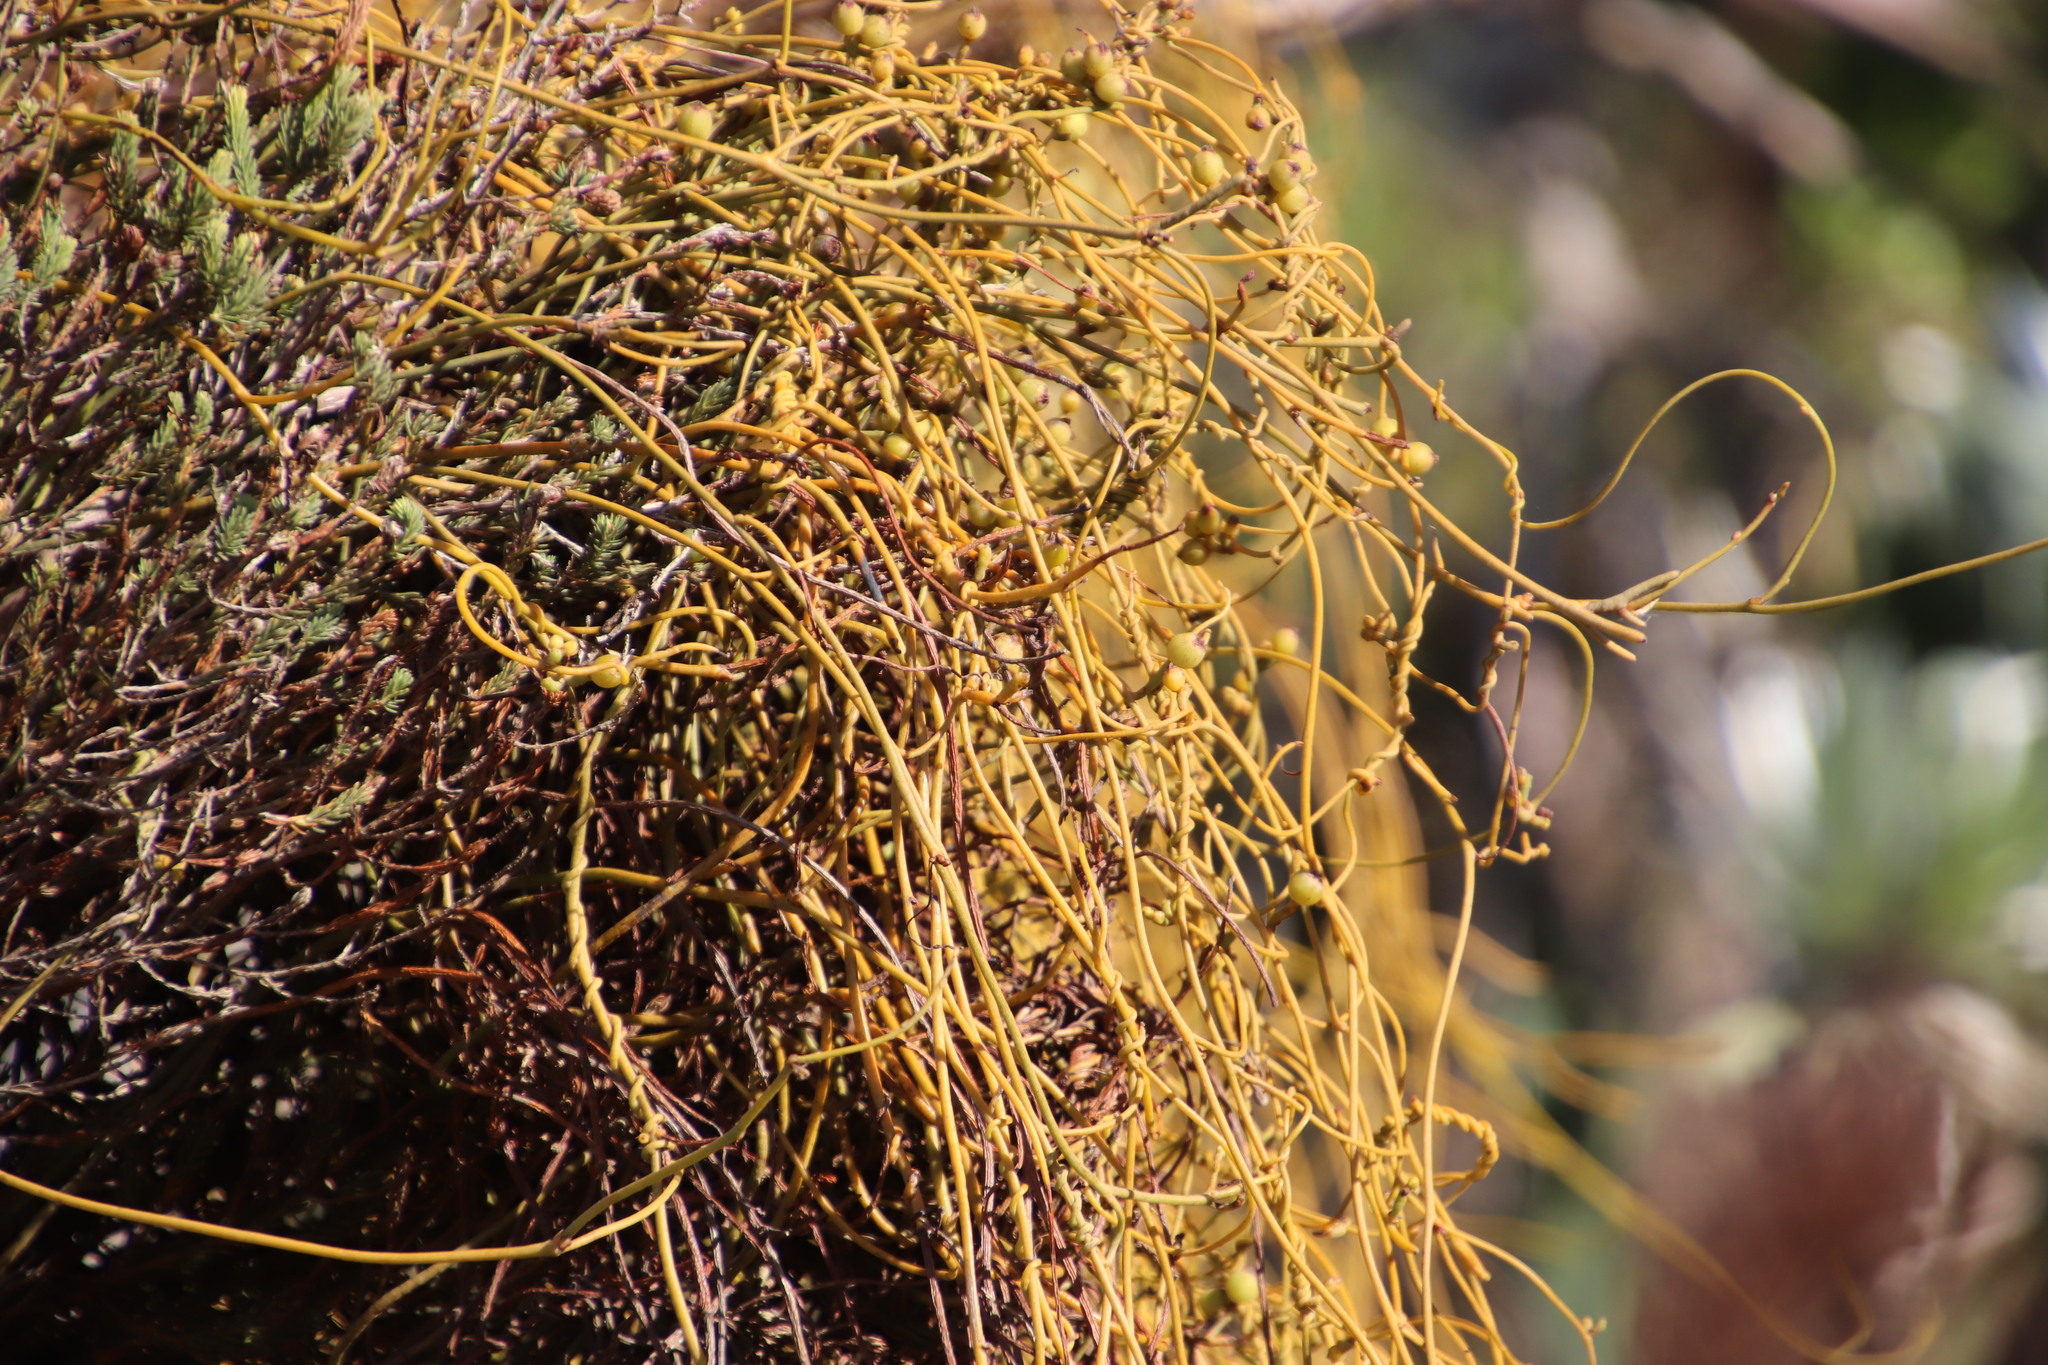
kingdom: Plantae
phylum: Tracheophyta
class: Magnoliopsida
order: Laurales
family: Lauraceae
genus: Cassytha
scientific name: Cassytha ciliolata
